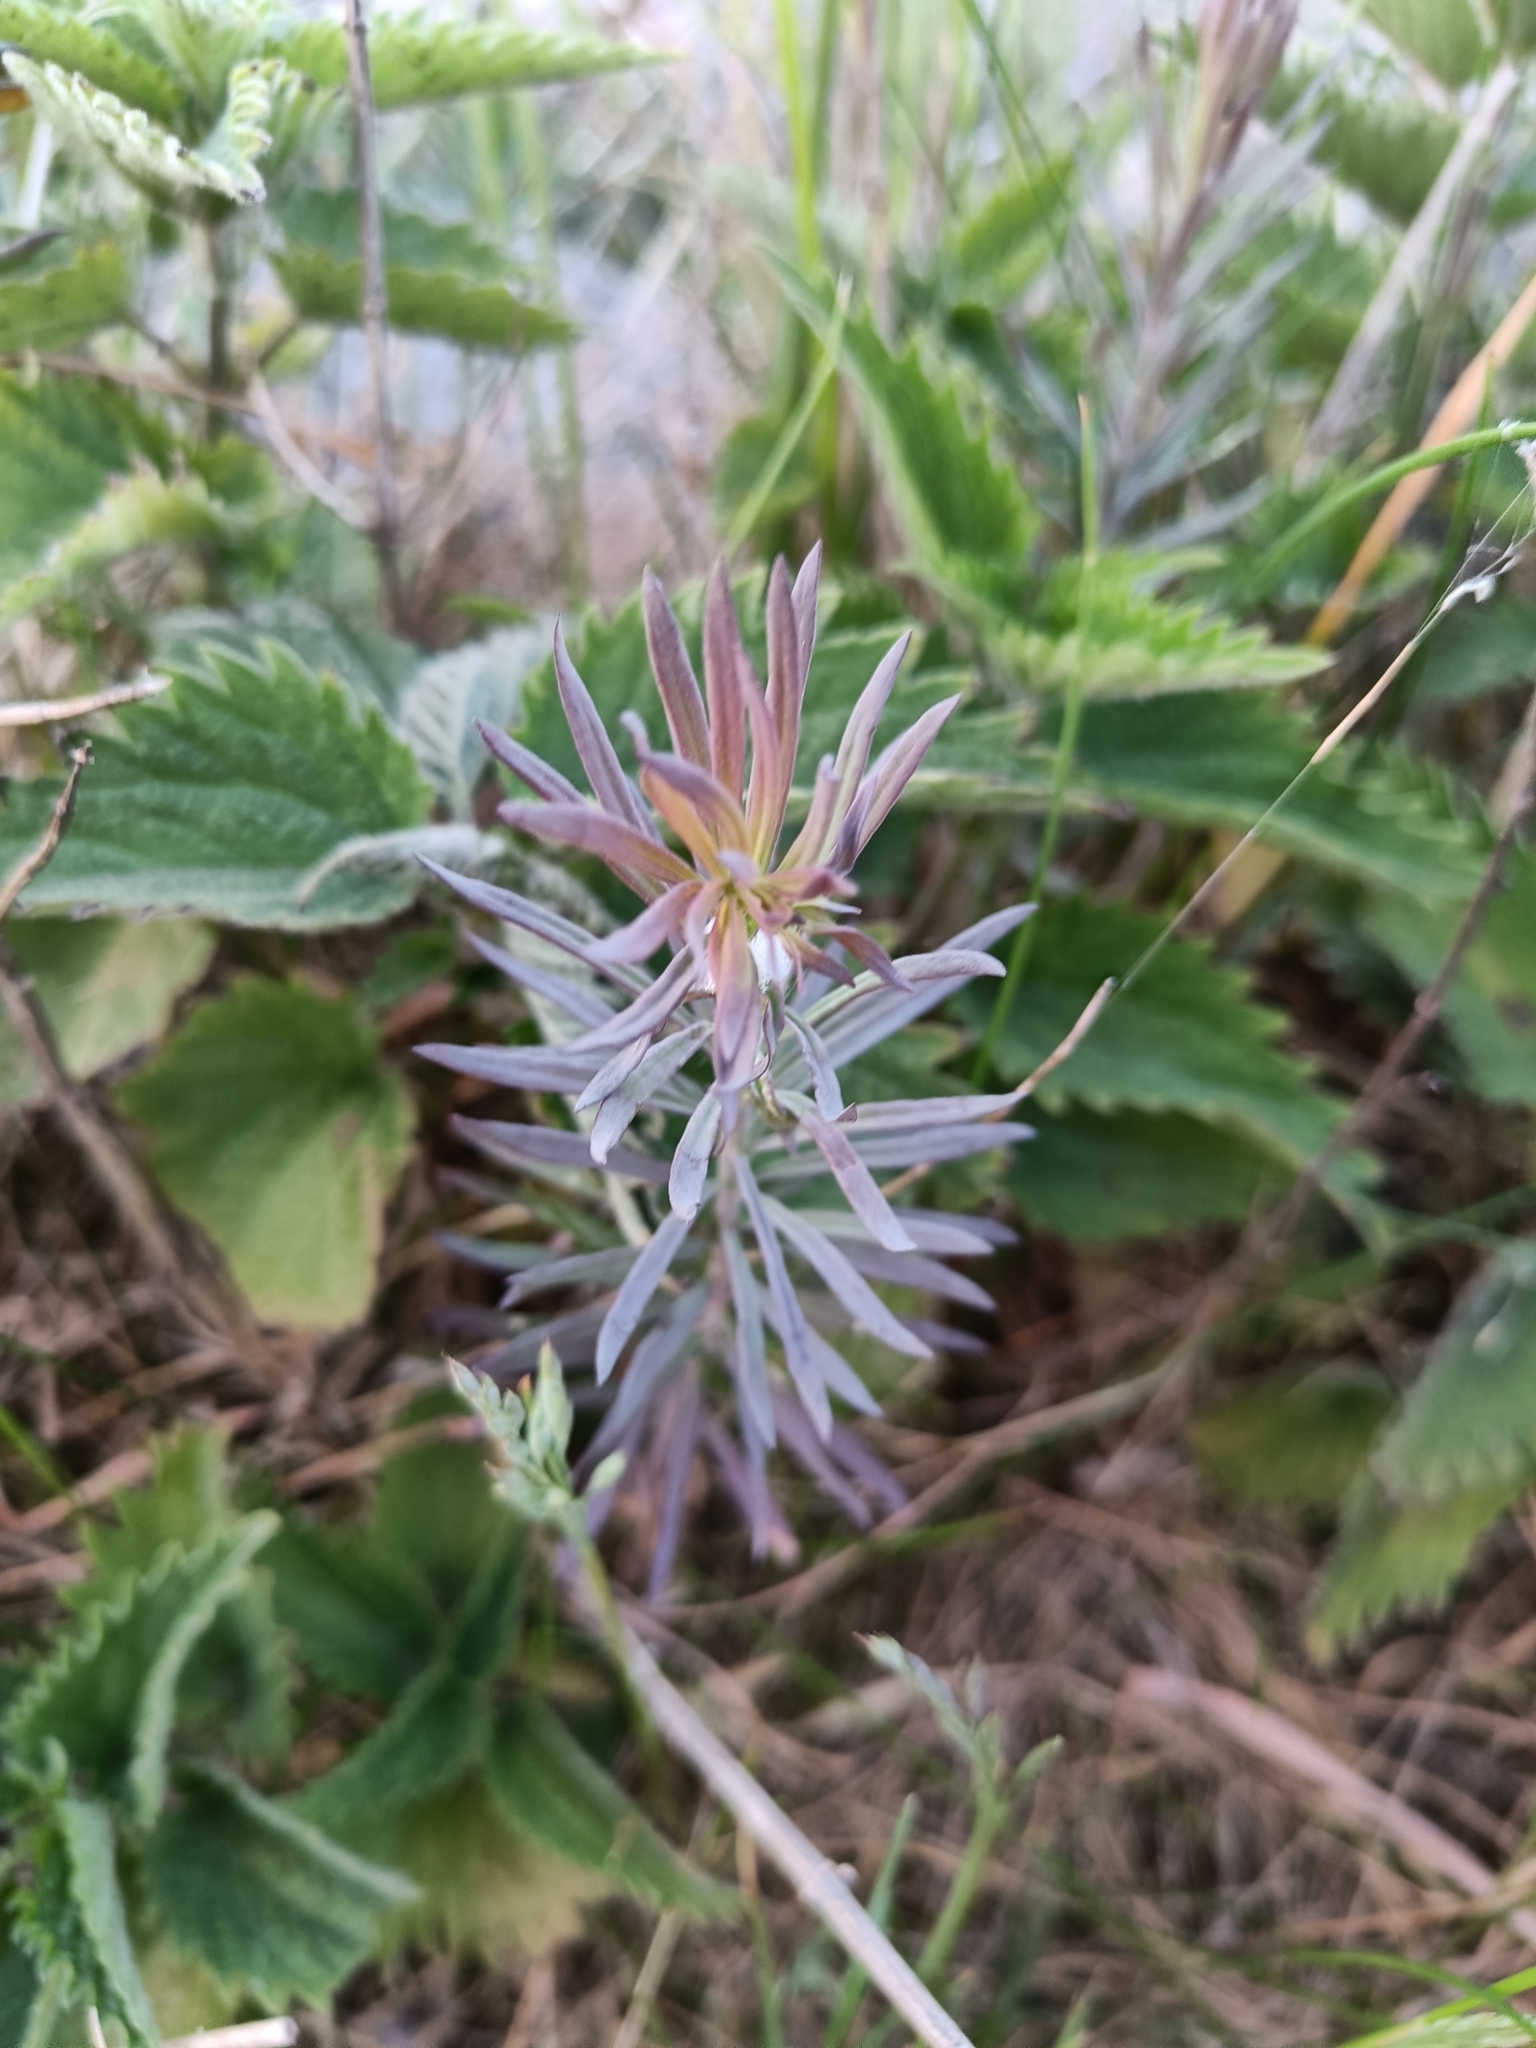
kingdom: Plantae
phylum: Tracheophyta
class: Magnoliopsida
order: Lamiales
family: Plantaginaceae
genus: Linaria
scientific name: Linaria vulgaris
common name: Butter and eggs
